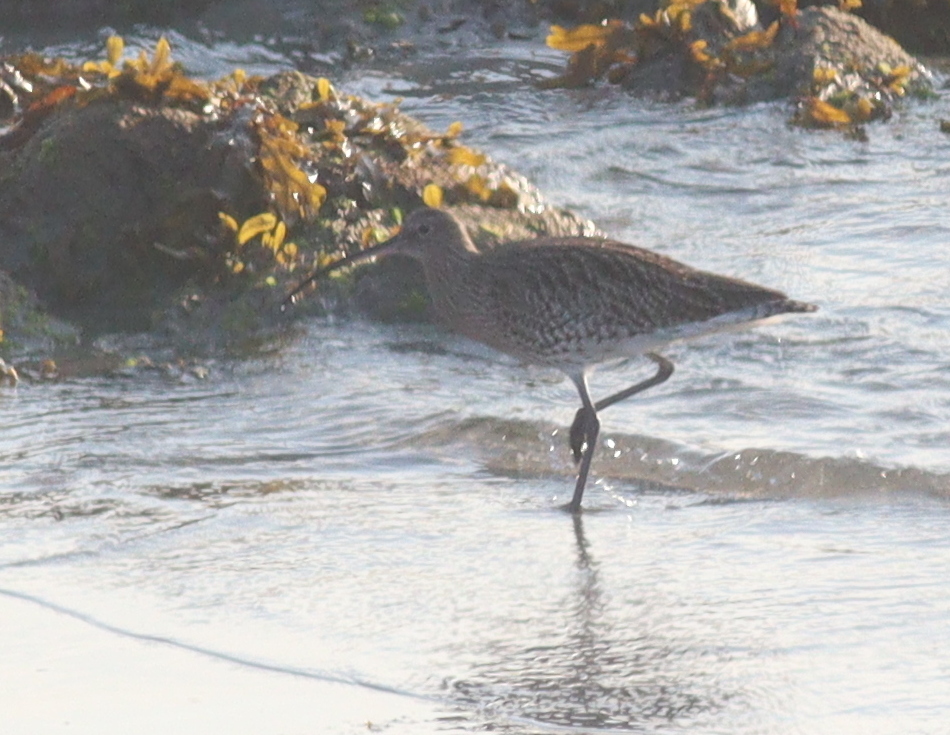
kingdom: Animalia
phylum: Chordata
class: Aves
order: Charadriiformes
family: Scolopacidae
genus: Numenius
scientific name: Numenius arquata
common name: Eurasian curlew
